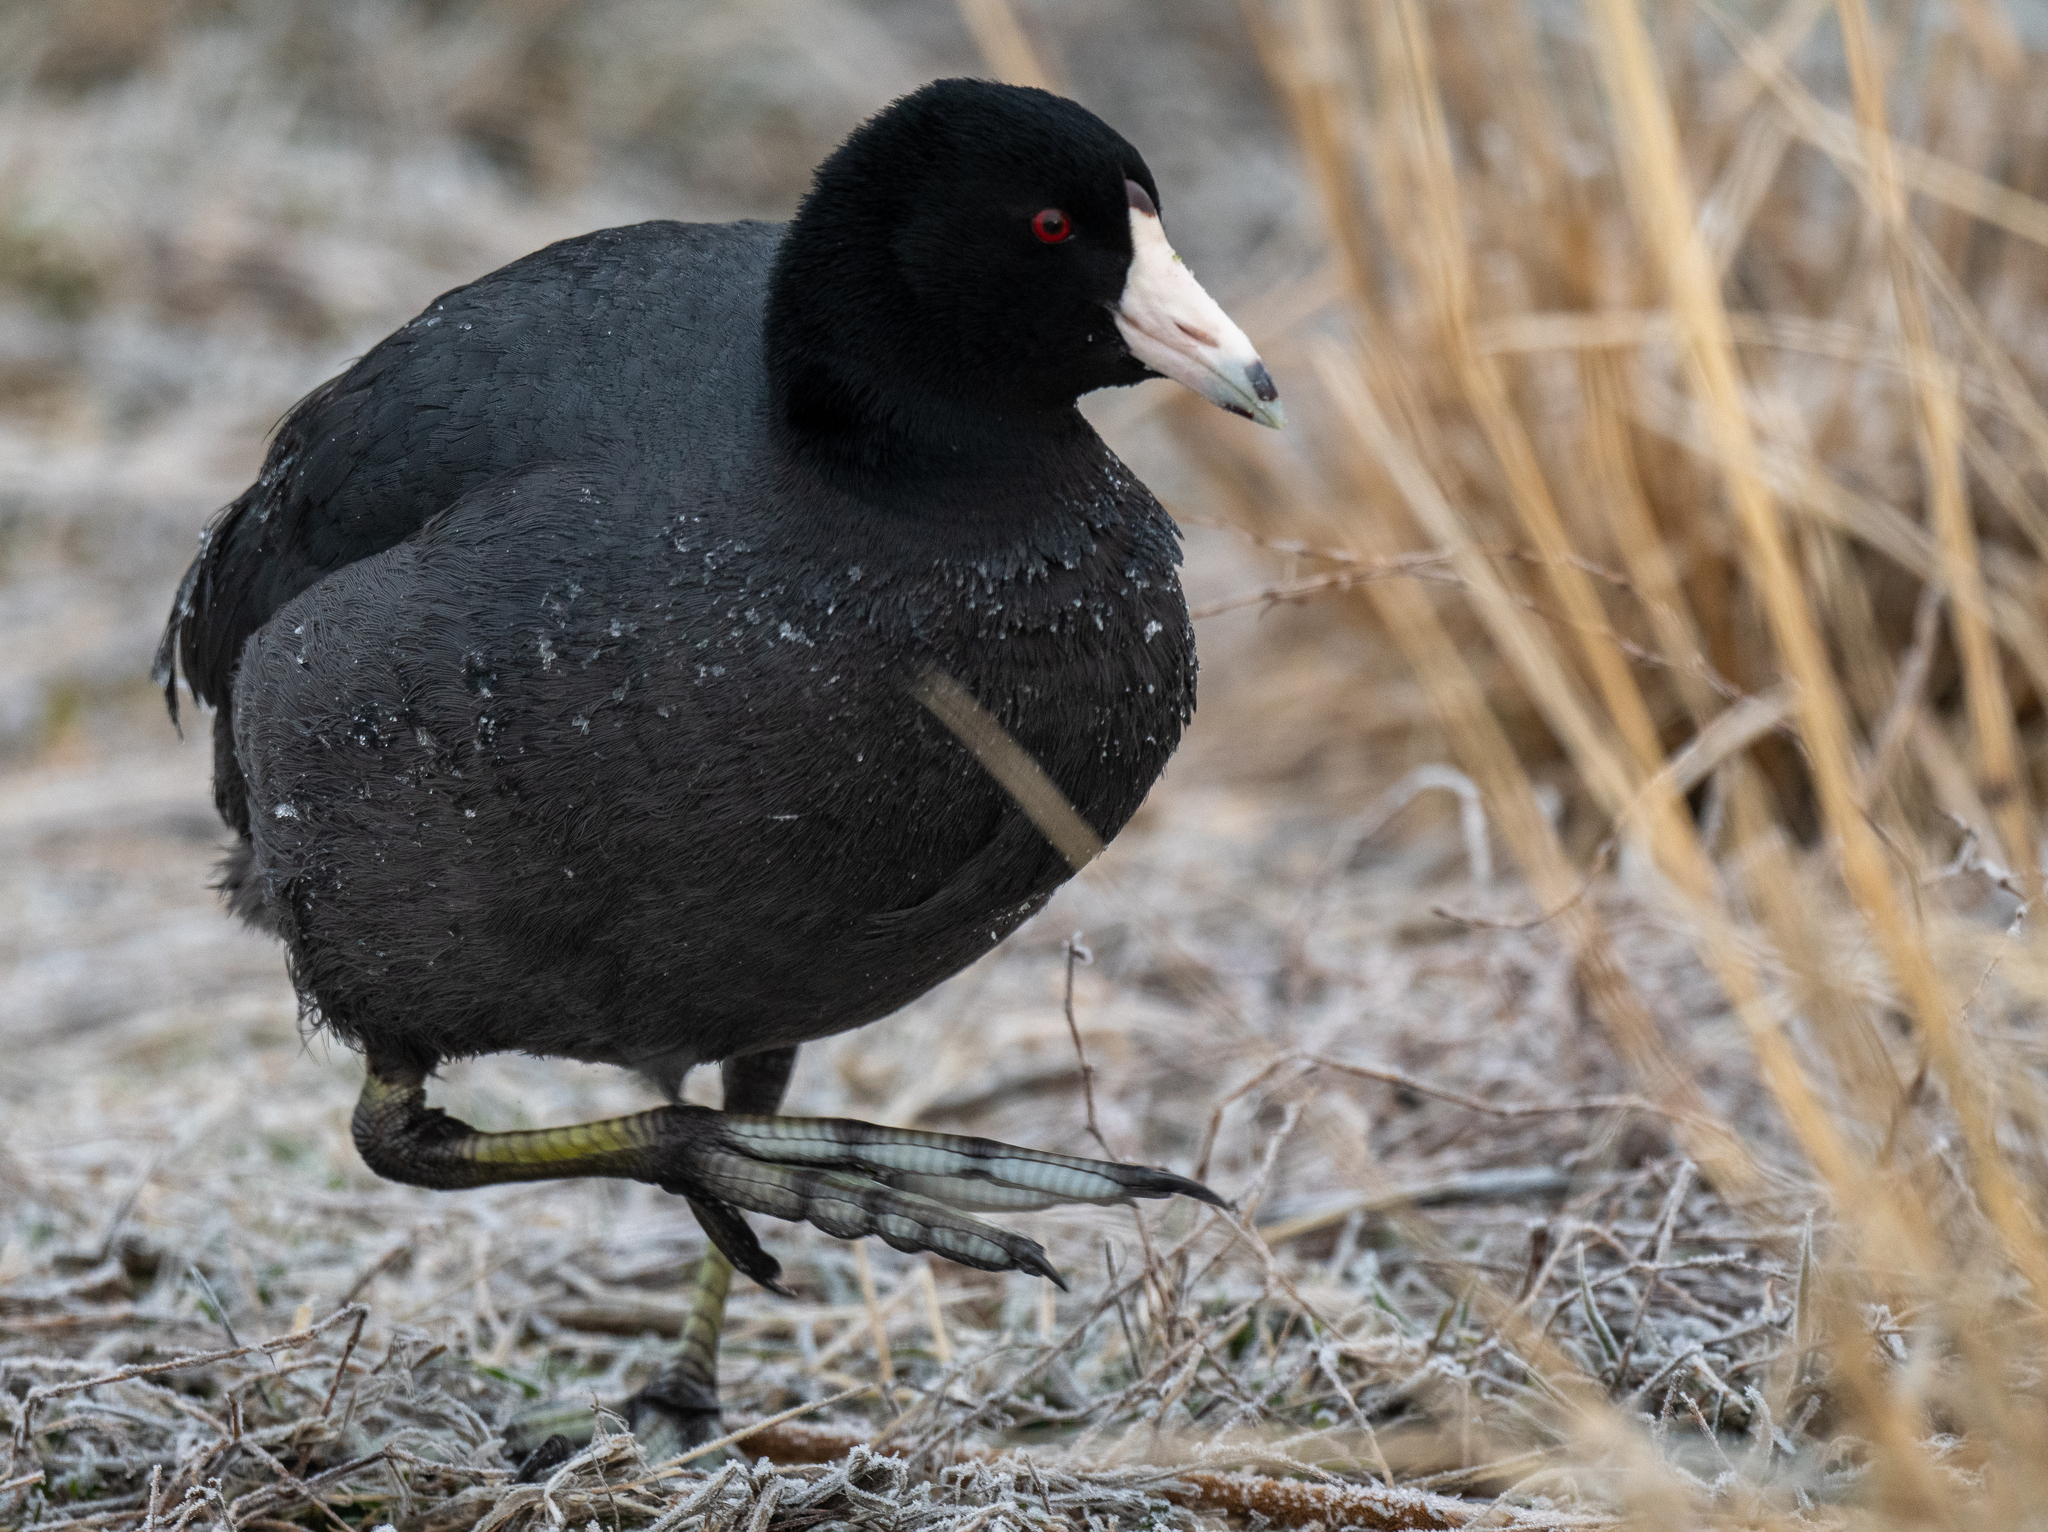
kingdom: Animalia
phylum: Chordata
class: Aves
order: Gruiformes
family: Rallidae
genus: Fulica
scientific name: Fulica americana
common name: American coot
